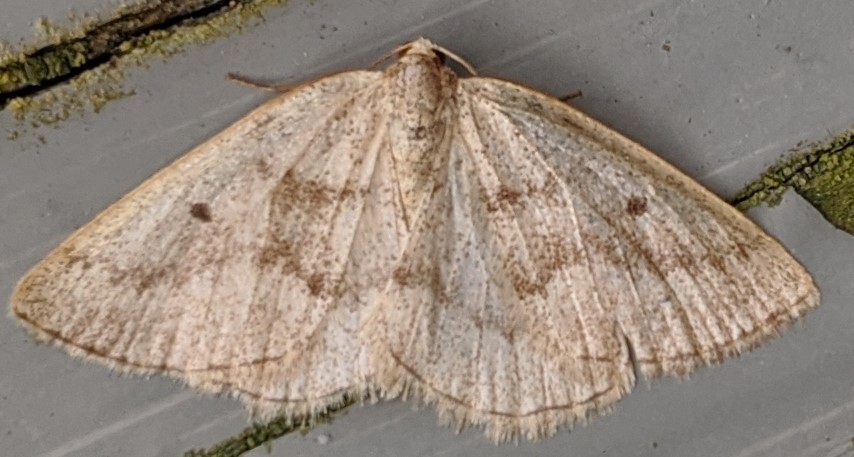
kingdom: Animalia
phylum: Arthropoda
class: Insecta
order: Lepidoptera
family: Geometridae
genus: Lomographa
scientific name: Lomographa glomeraria
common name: Gray spring moth
